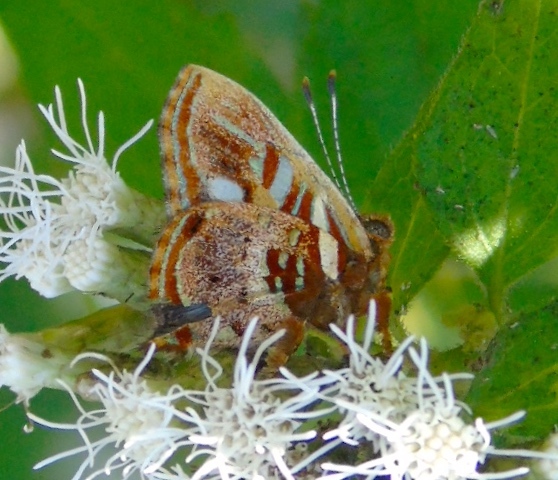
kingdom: Animalia
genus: Anteros
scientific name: Anteros carausius
